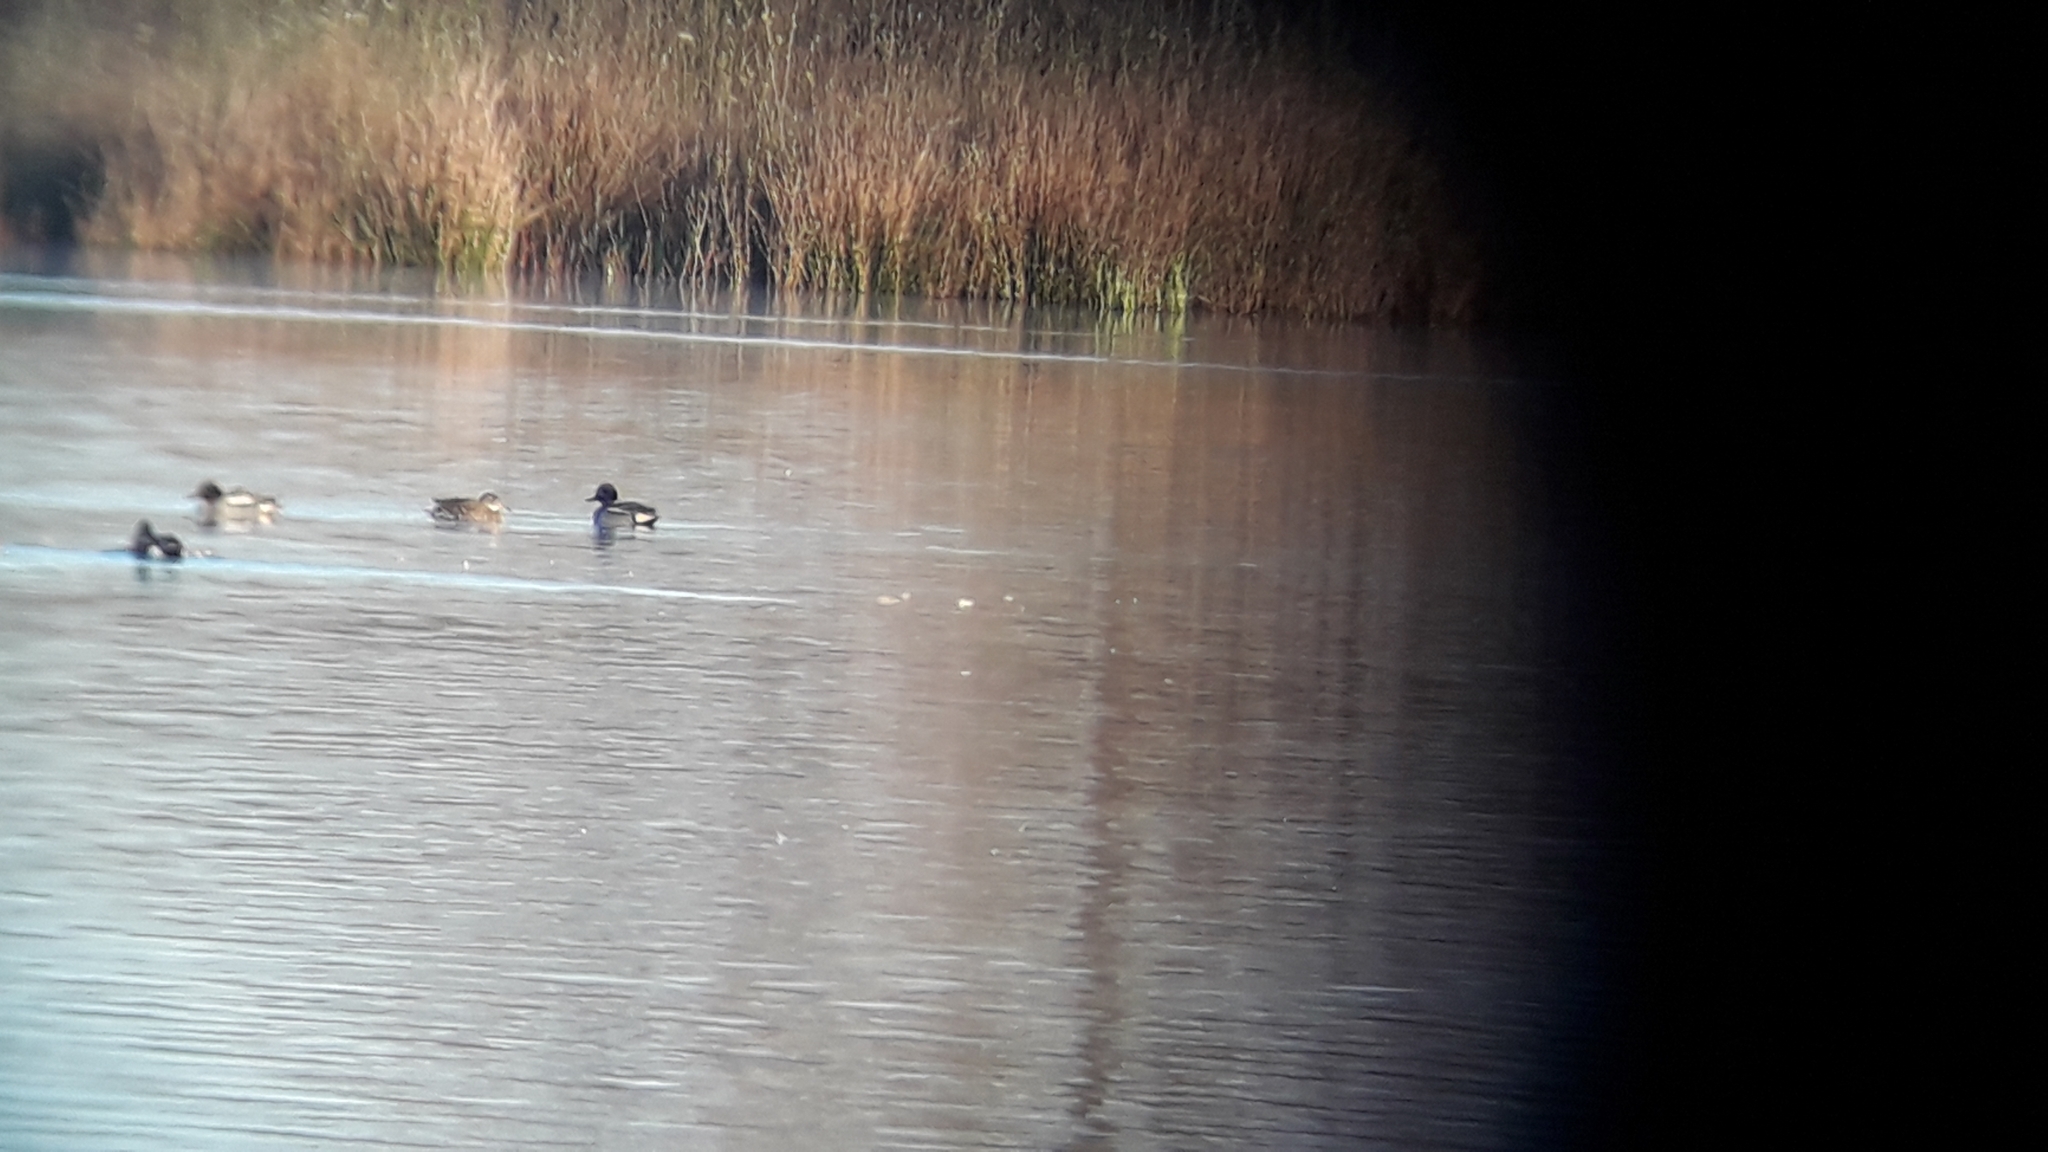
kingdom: Animalia
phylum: Chordata
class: Aves
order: Anseriformes
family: Anatidae
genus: Spatula
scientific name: Spatula clypeata
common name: Northern shoveler
